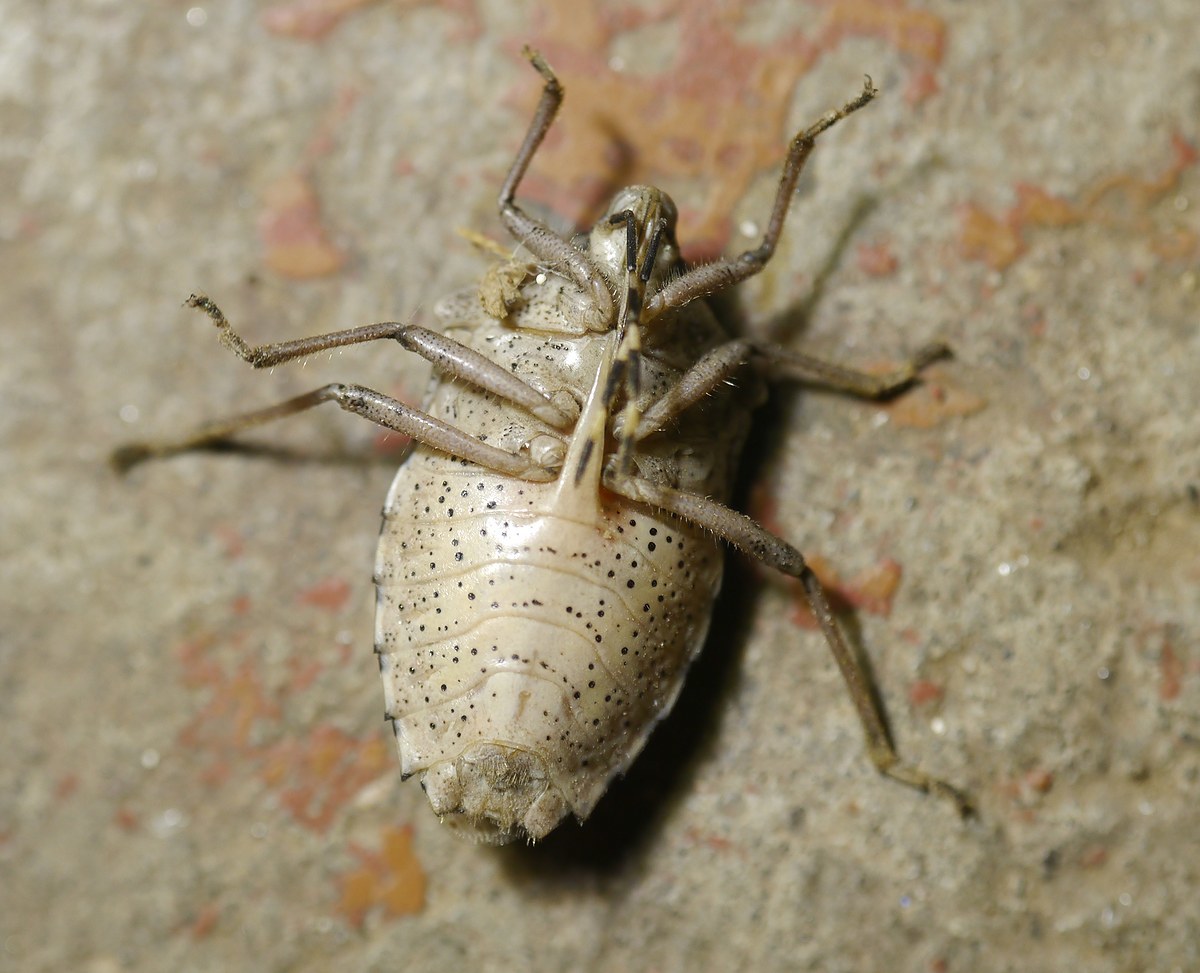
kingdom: Animalia
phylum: Arthropoda
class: Insecta
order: Hemiptera
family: Pentatomidae
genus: Rhaphigaster
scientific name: Rhaphigaster nebulosa
